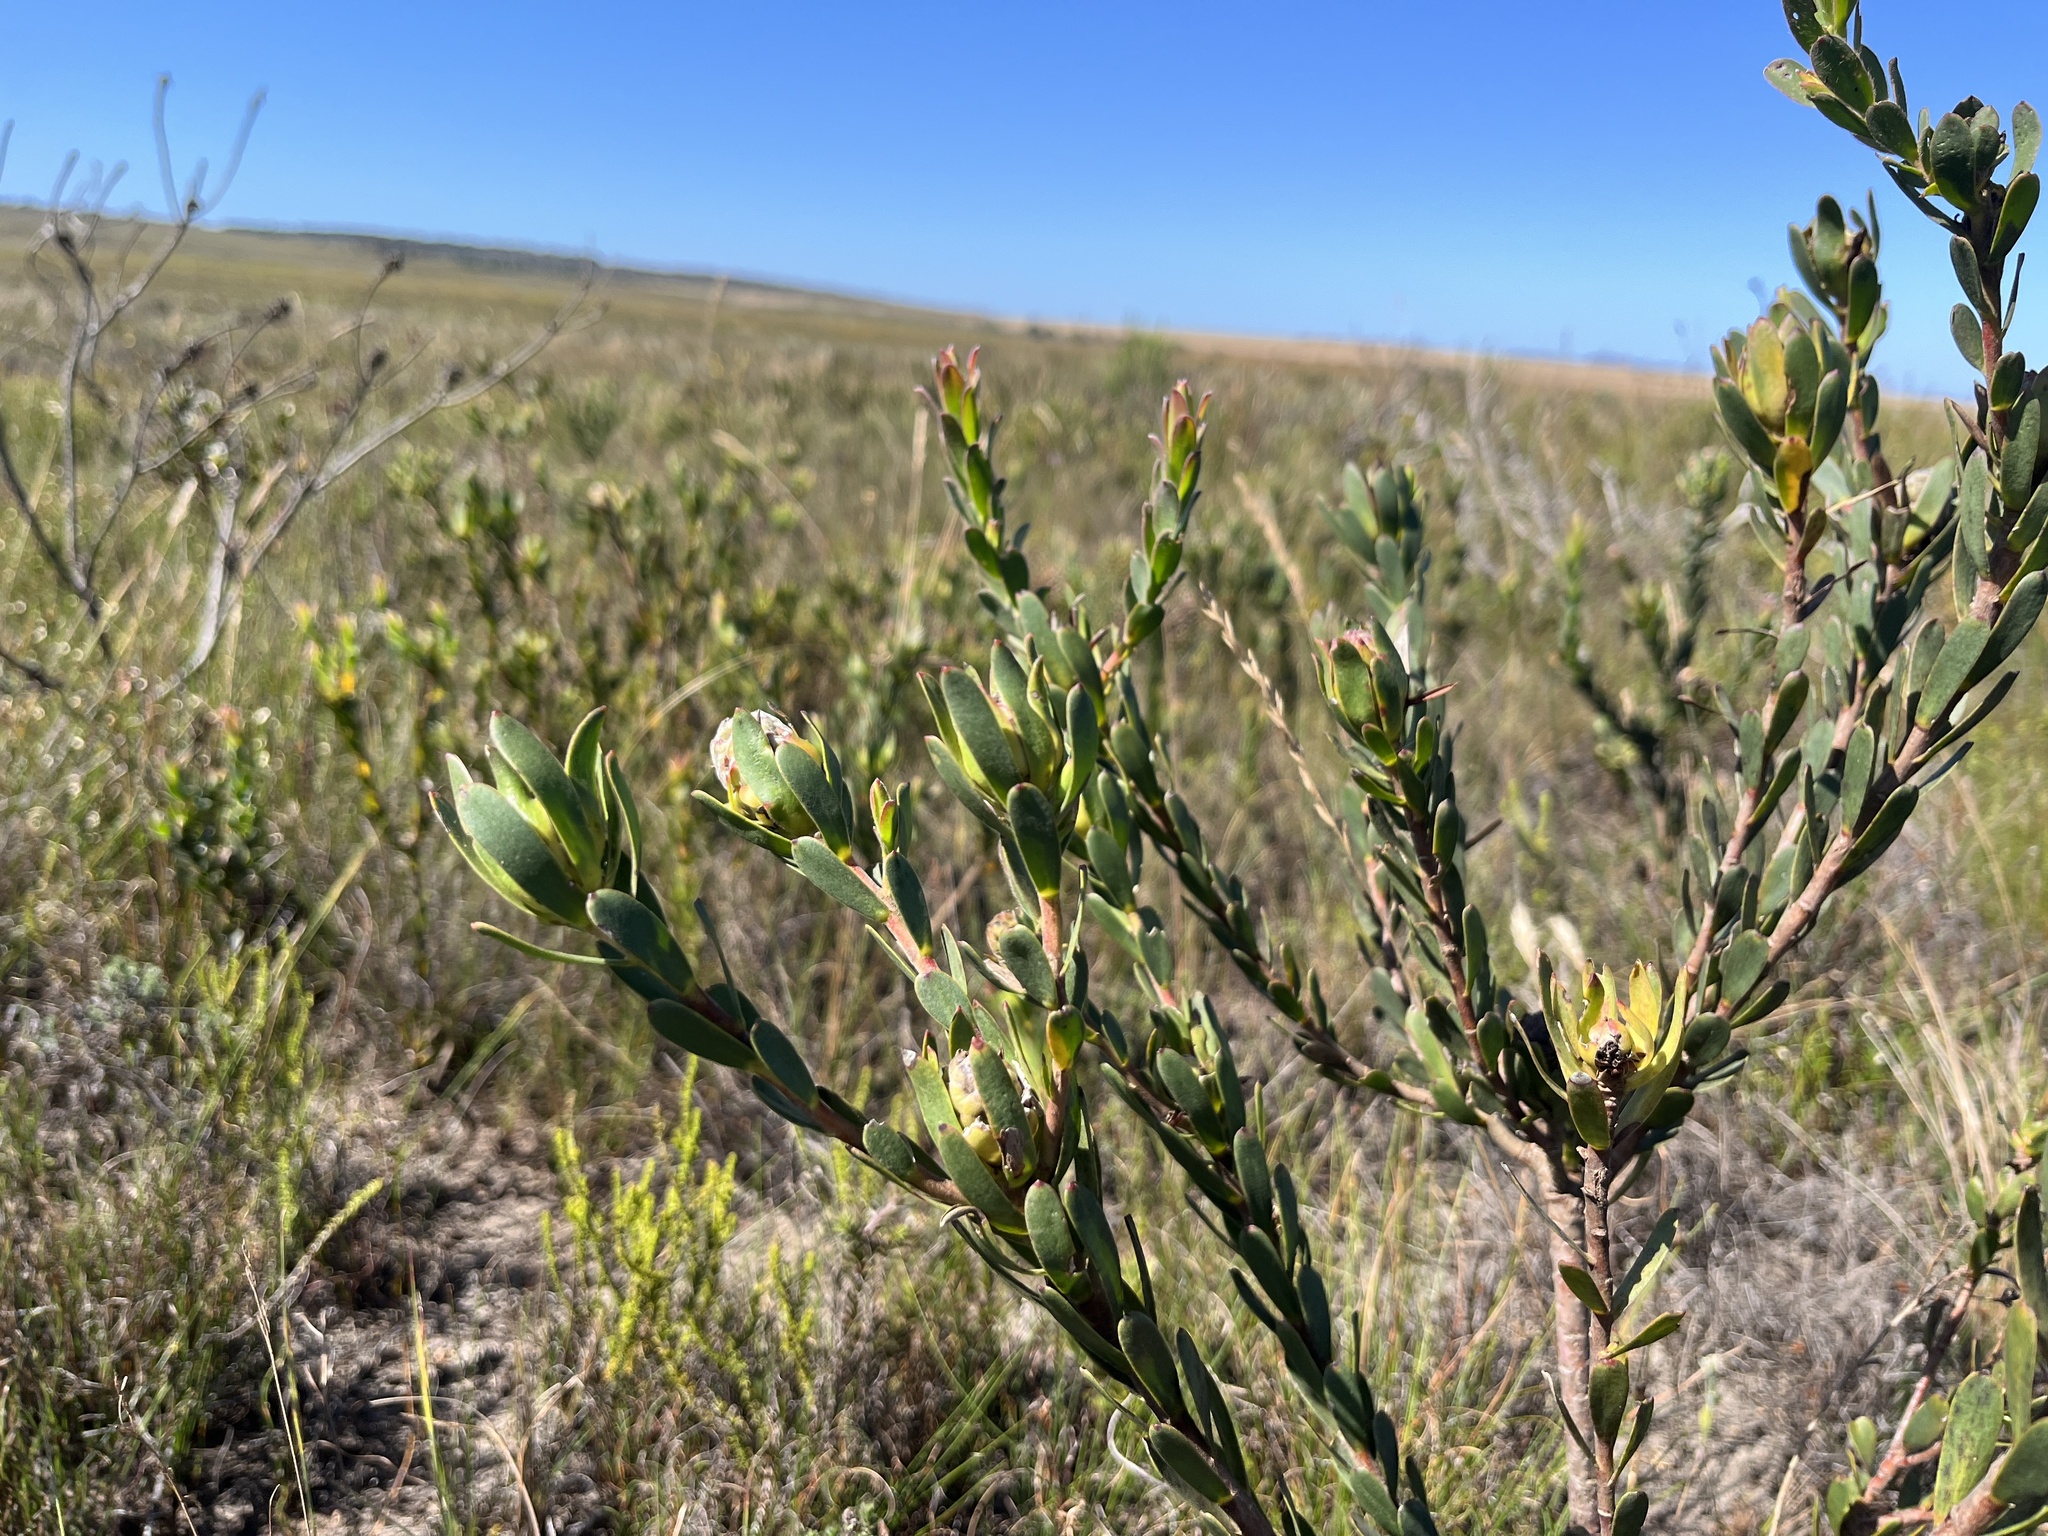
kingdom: Plantae
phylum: Tracheophyta
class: Magnoliopsida
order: Proteales
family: Proteaceae
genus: Leucadendron
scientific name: Leucadendron stelligerum
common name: Agulhas conebush
